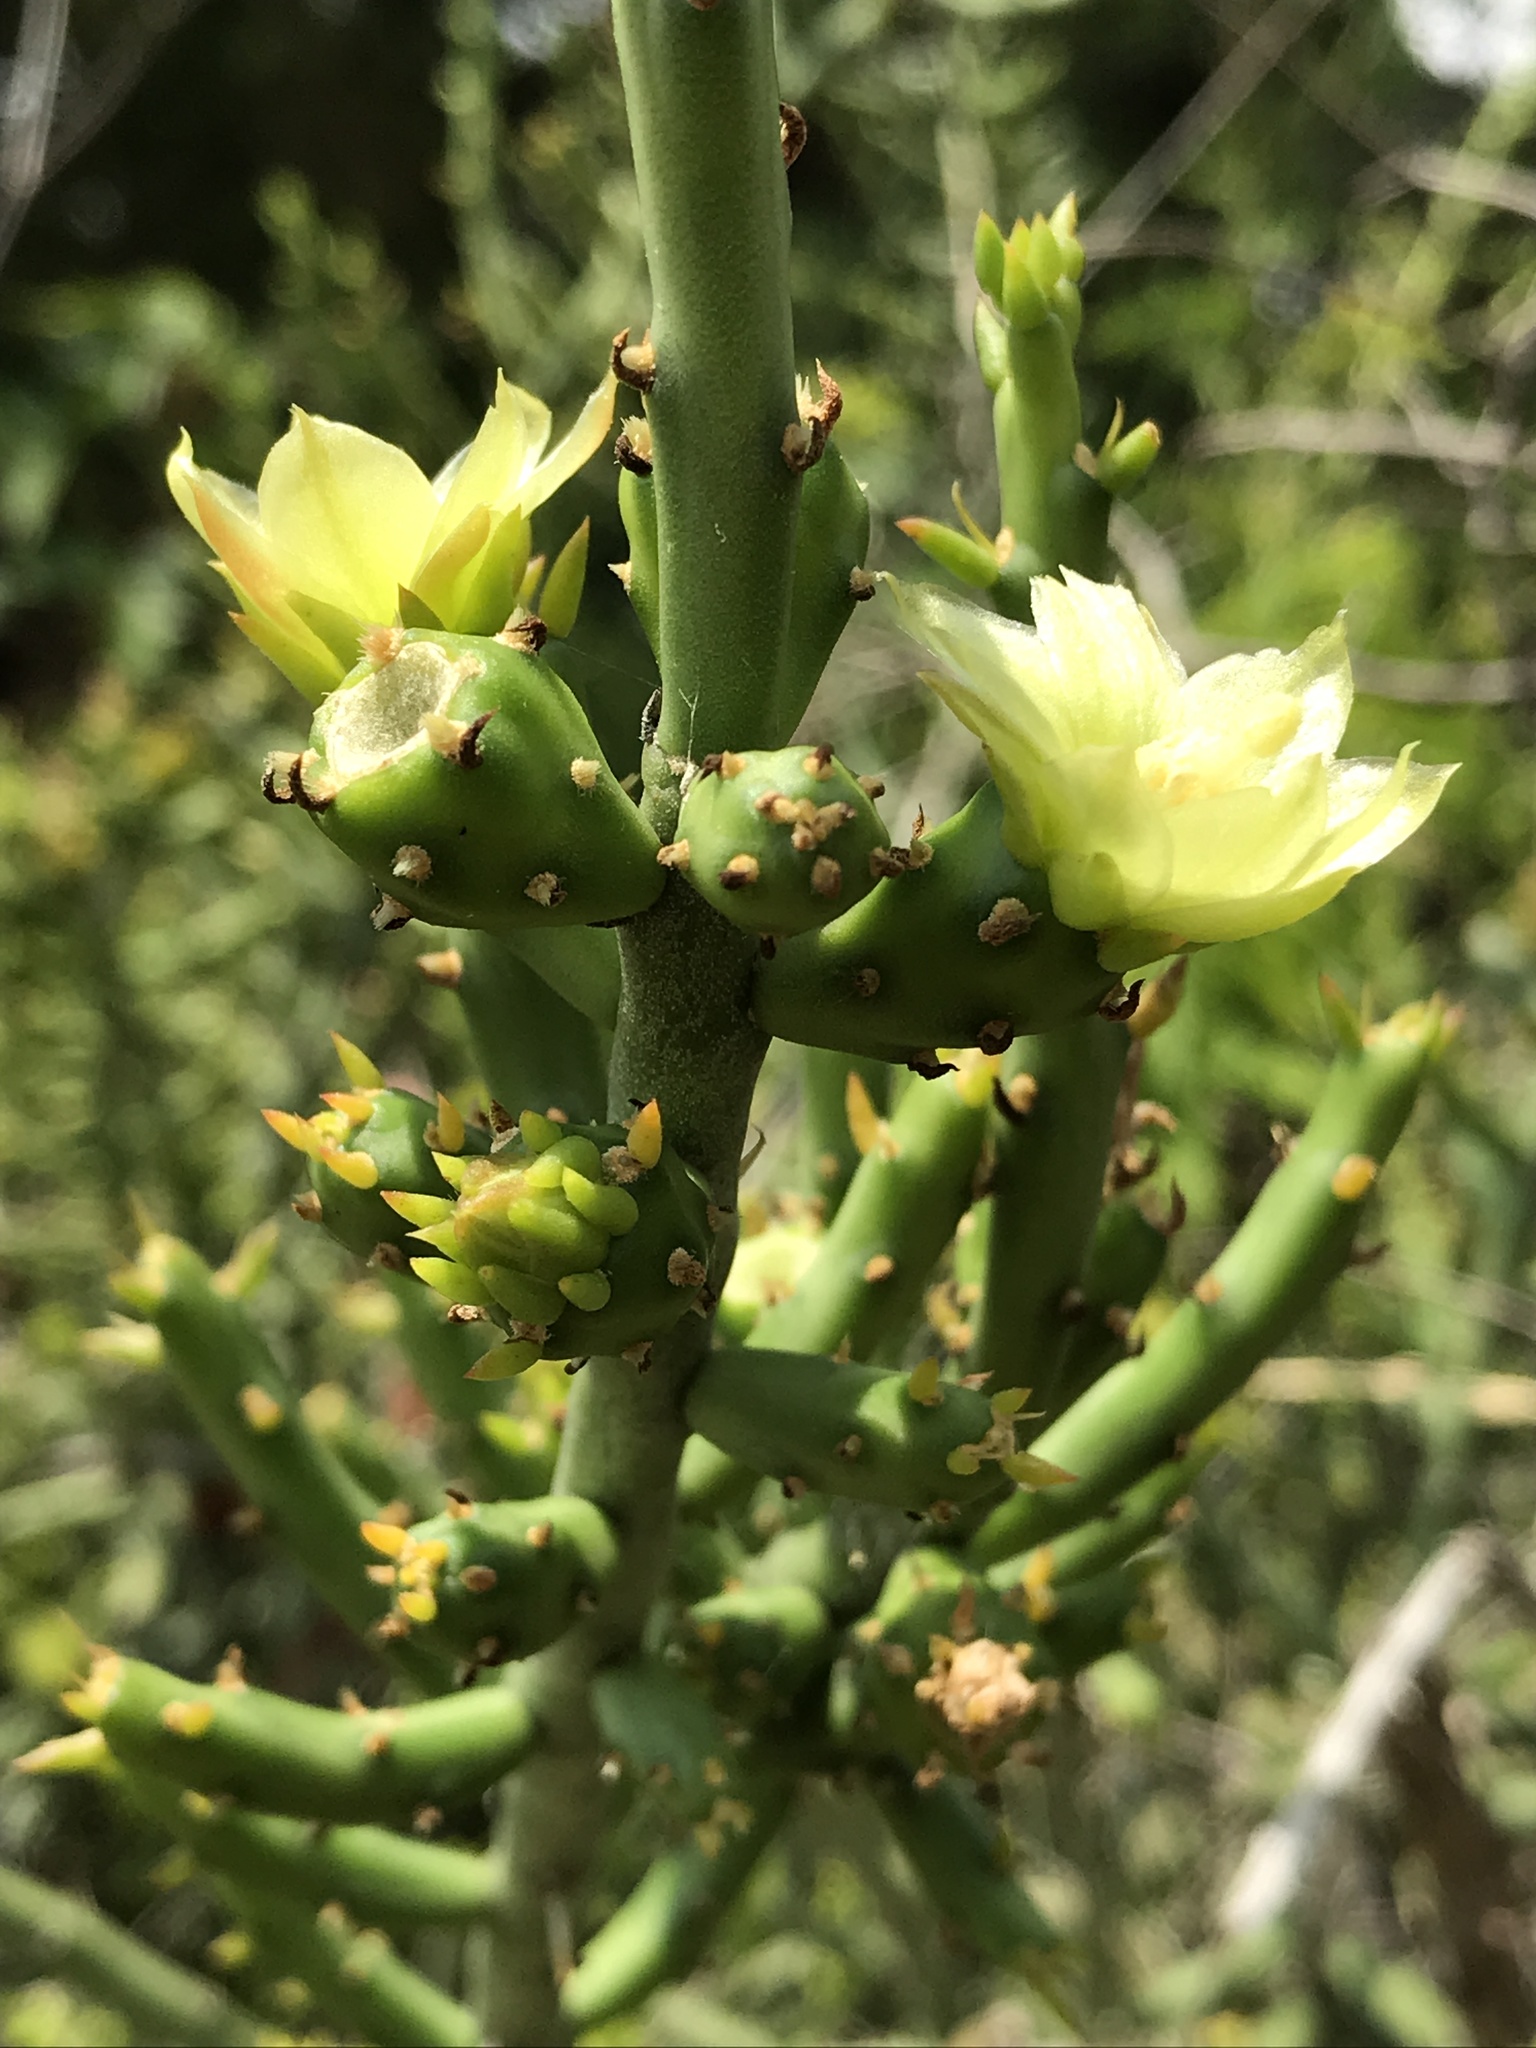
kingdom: Plantae
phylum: Tracheophyta
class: Magnoliopsida
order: Caryophyllales
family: Cactaceae
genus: Cylindropuntia
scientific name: Cylindropuntia leptocaulis
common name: Christmas cactus
